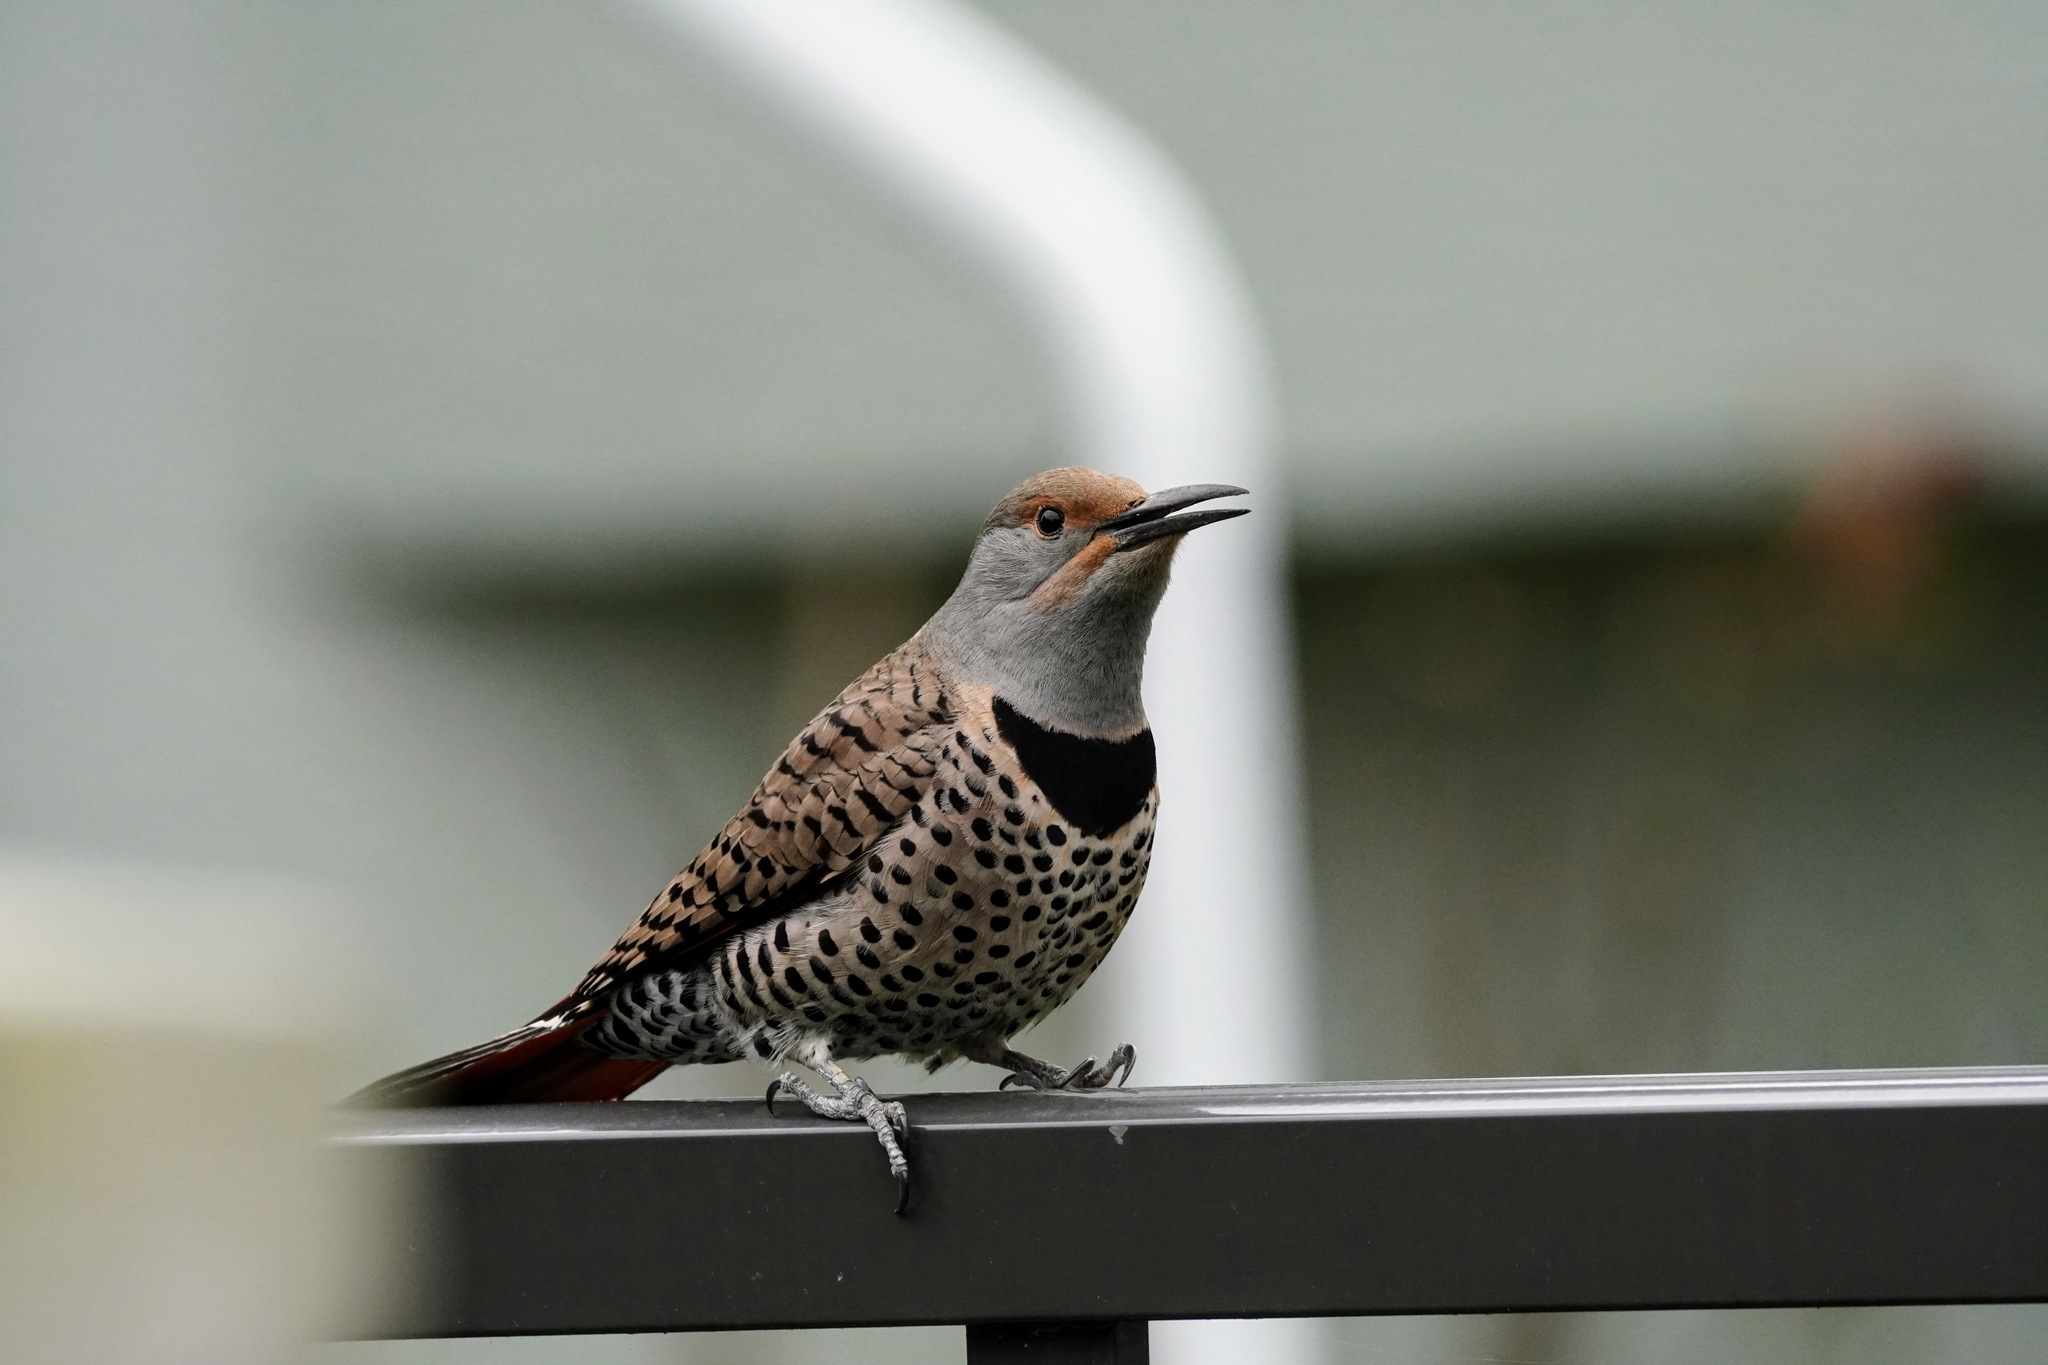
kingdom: Animalia
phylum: Chordata
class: Aves
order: Piciformes
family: Picidae
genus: Colaptes
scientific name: Colaptes auratus
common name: Northern flicker
